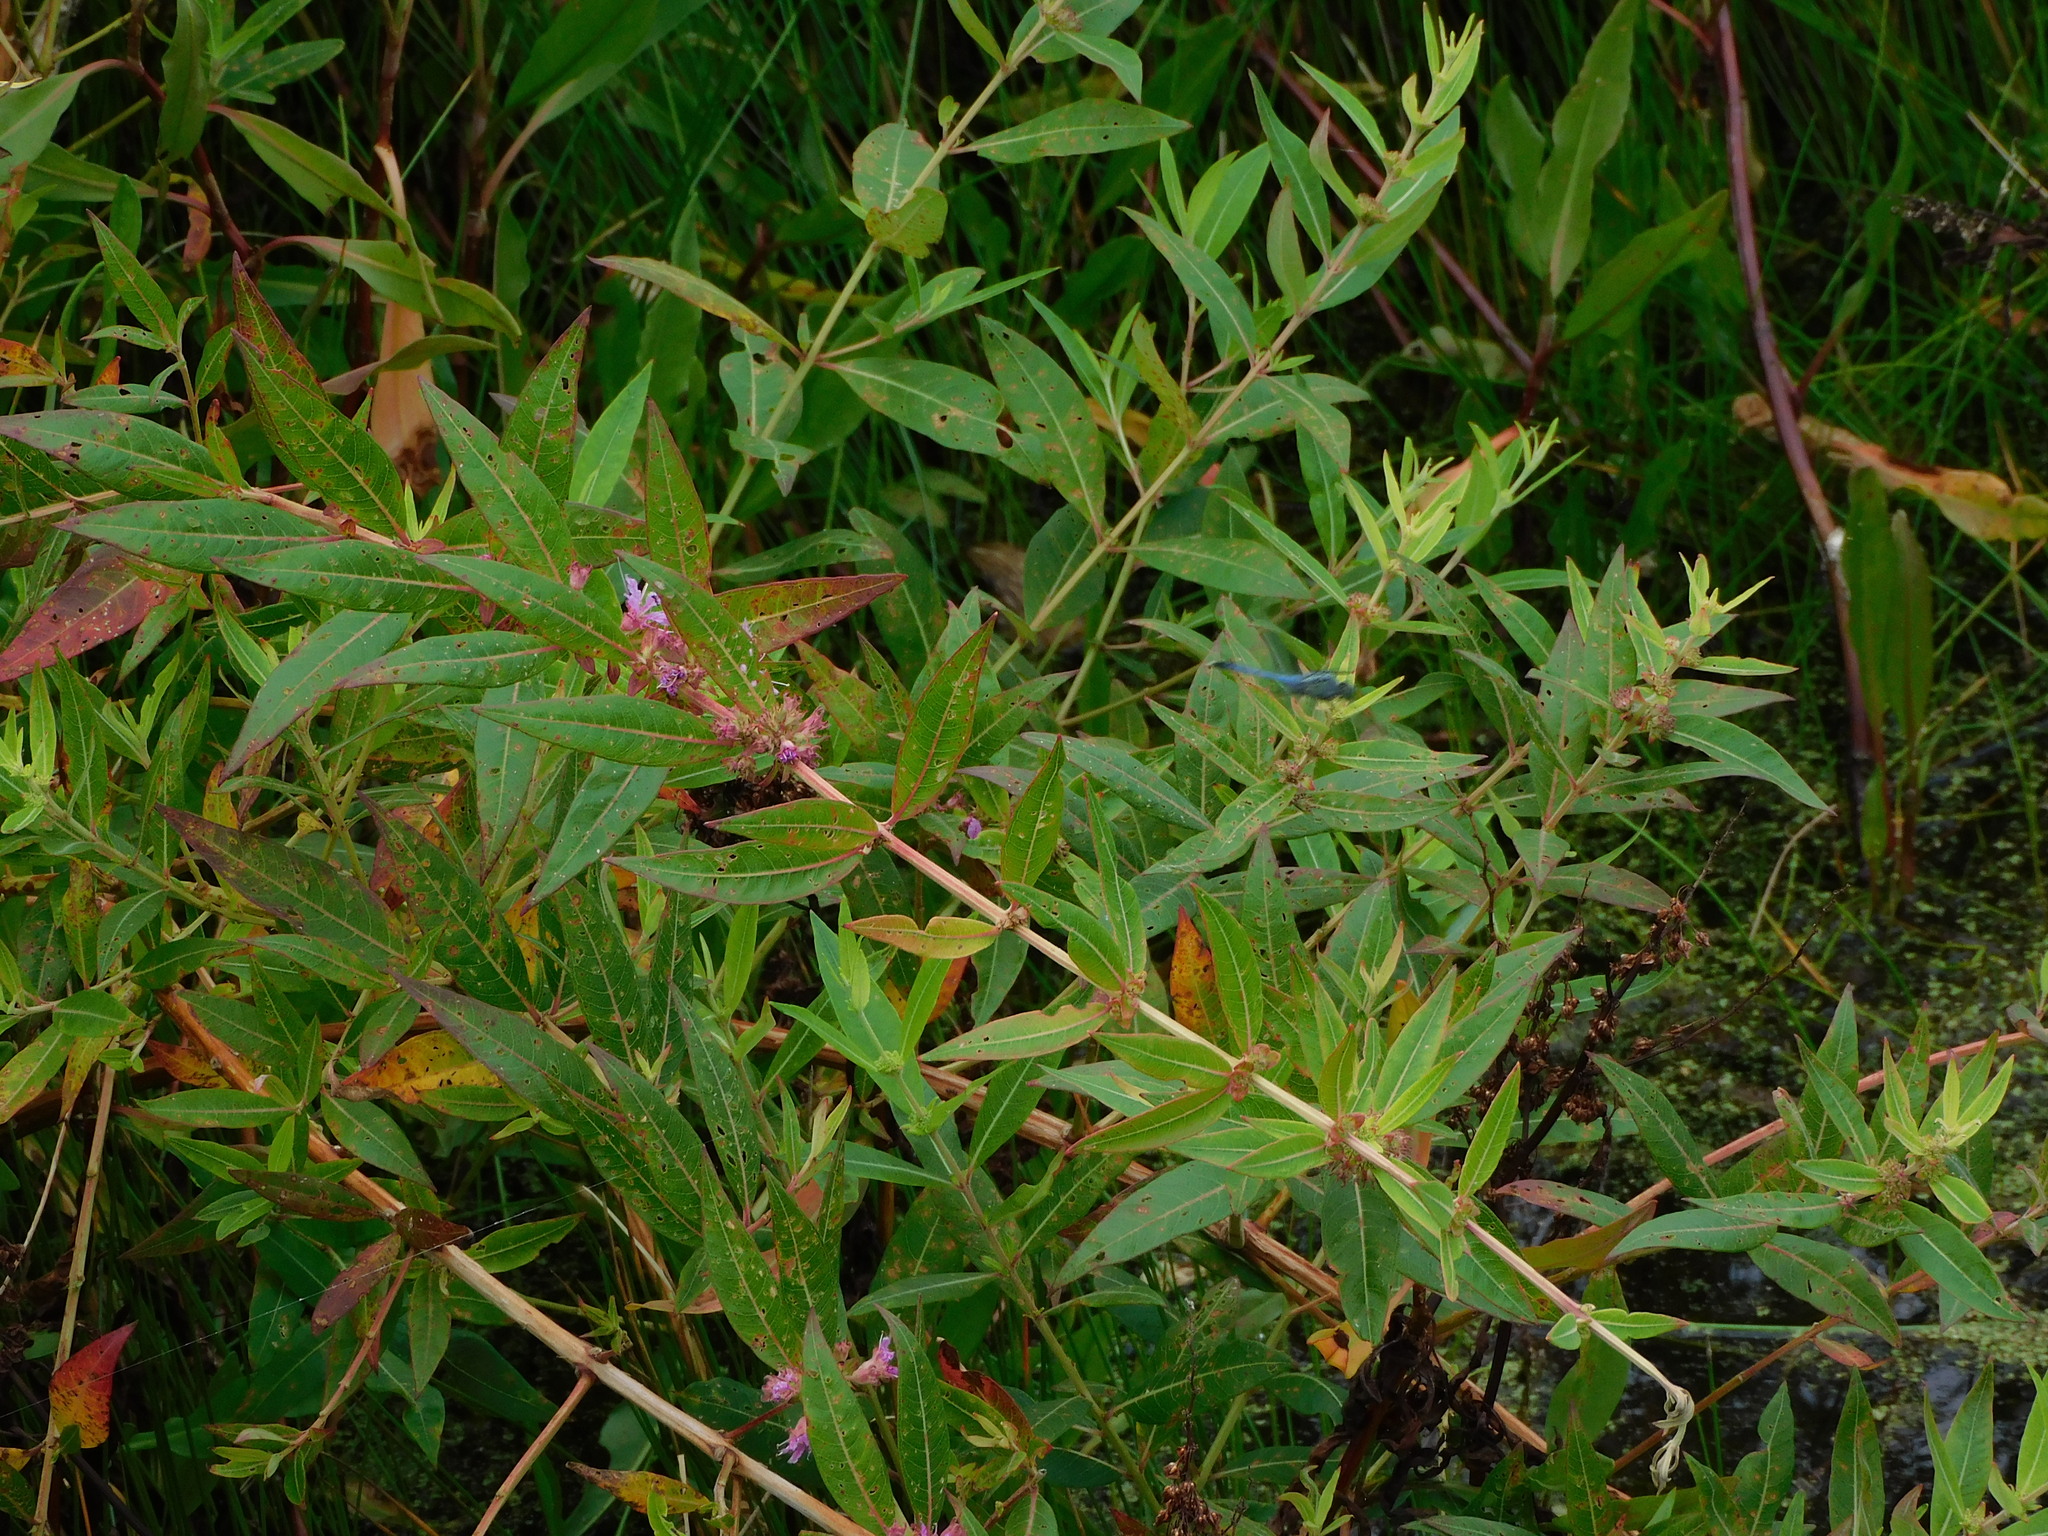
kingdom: Plantae
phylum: Tracheophyta
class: Magnoliopsida
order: Myrtales
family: Lythraceae
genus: Decodon
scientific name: Decodon verticillatus
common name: Hairy swamp loosestrife
